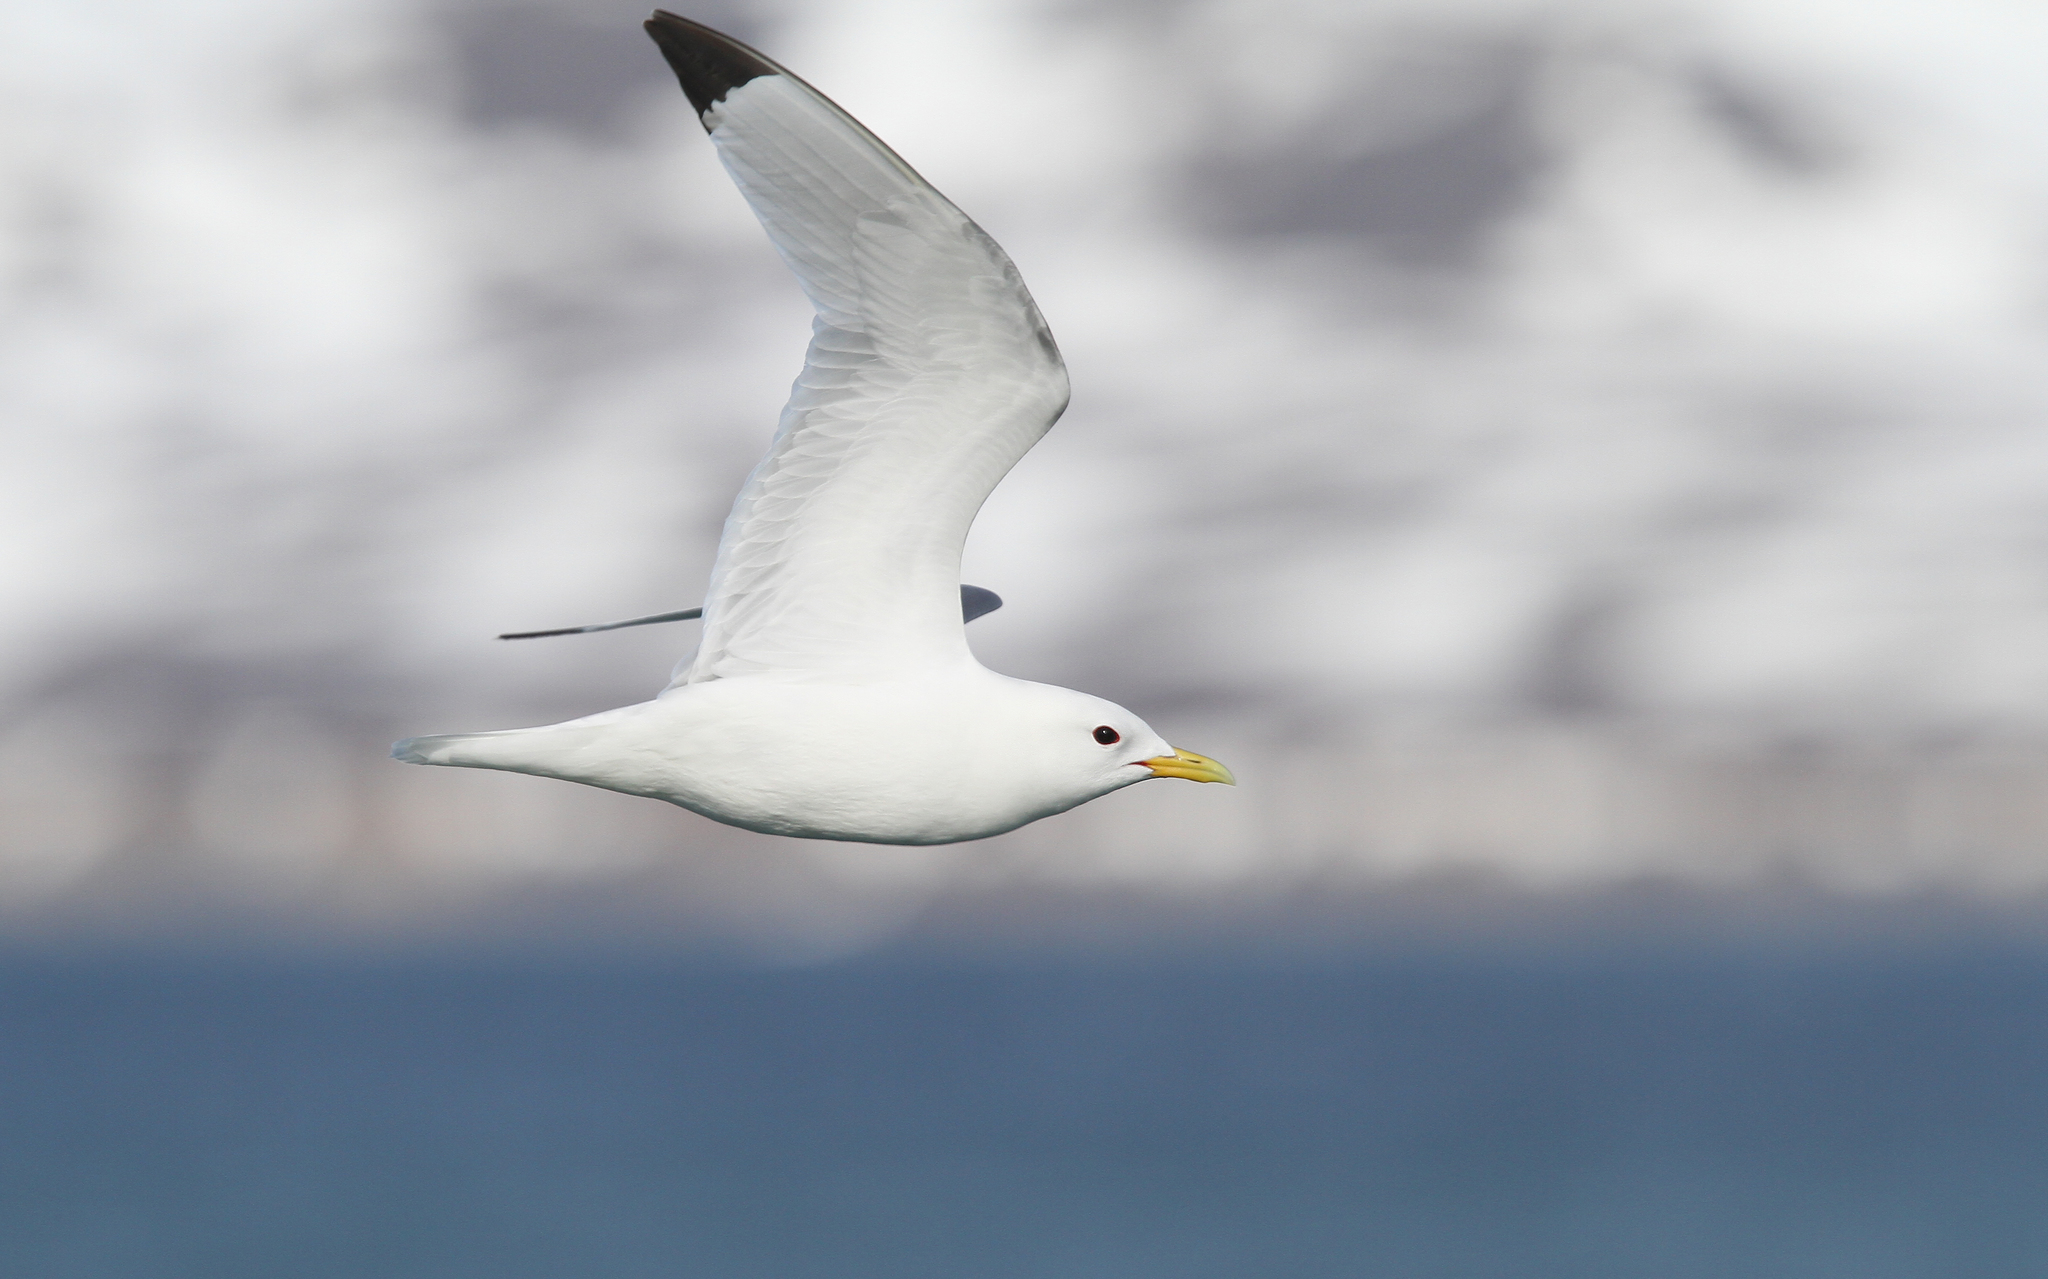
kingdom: Animalia
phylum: Chordata
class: Aves
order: Charadriiformes
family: Laridae
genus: Rissa
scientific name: Rissa tridactyla
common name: Black-legged kittiwake
